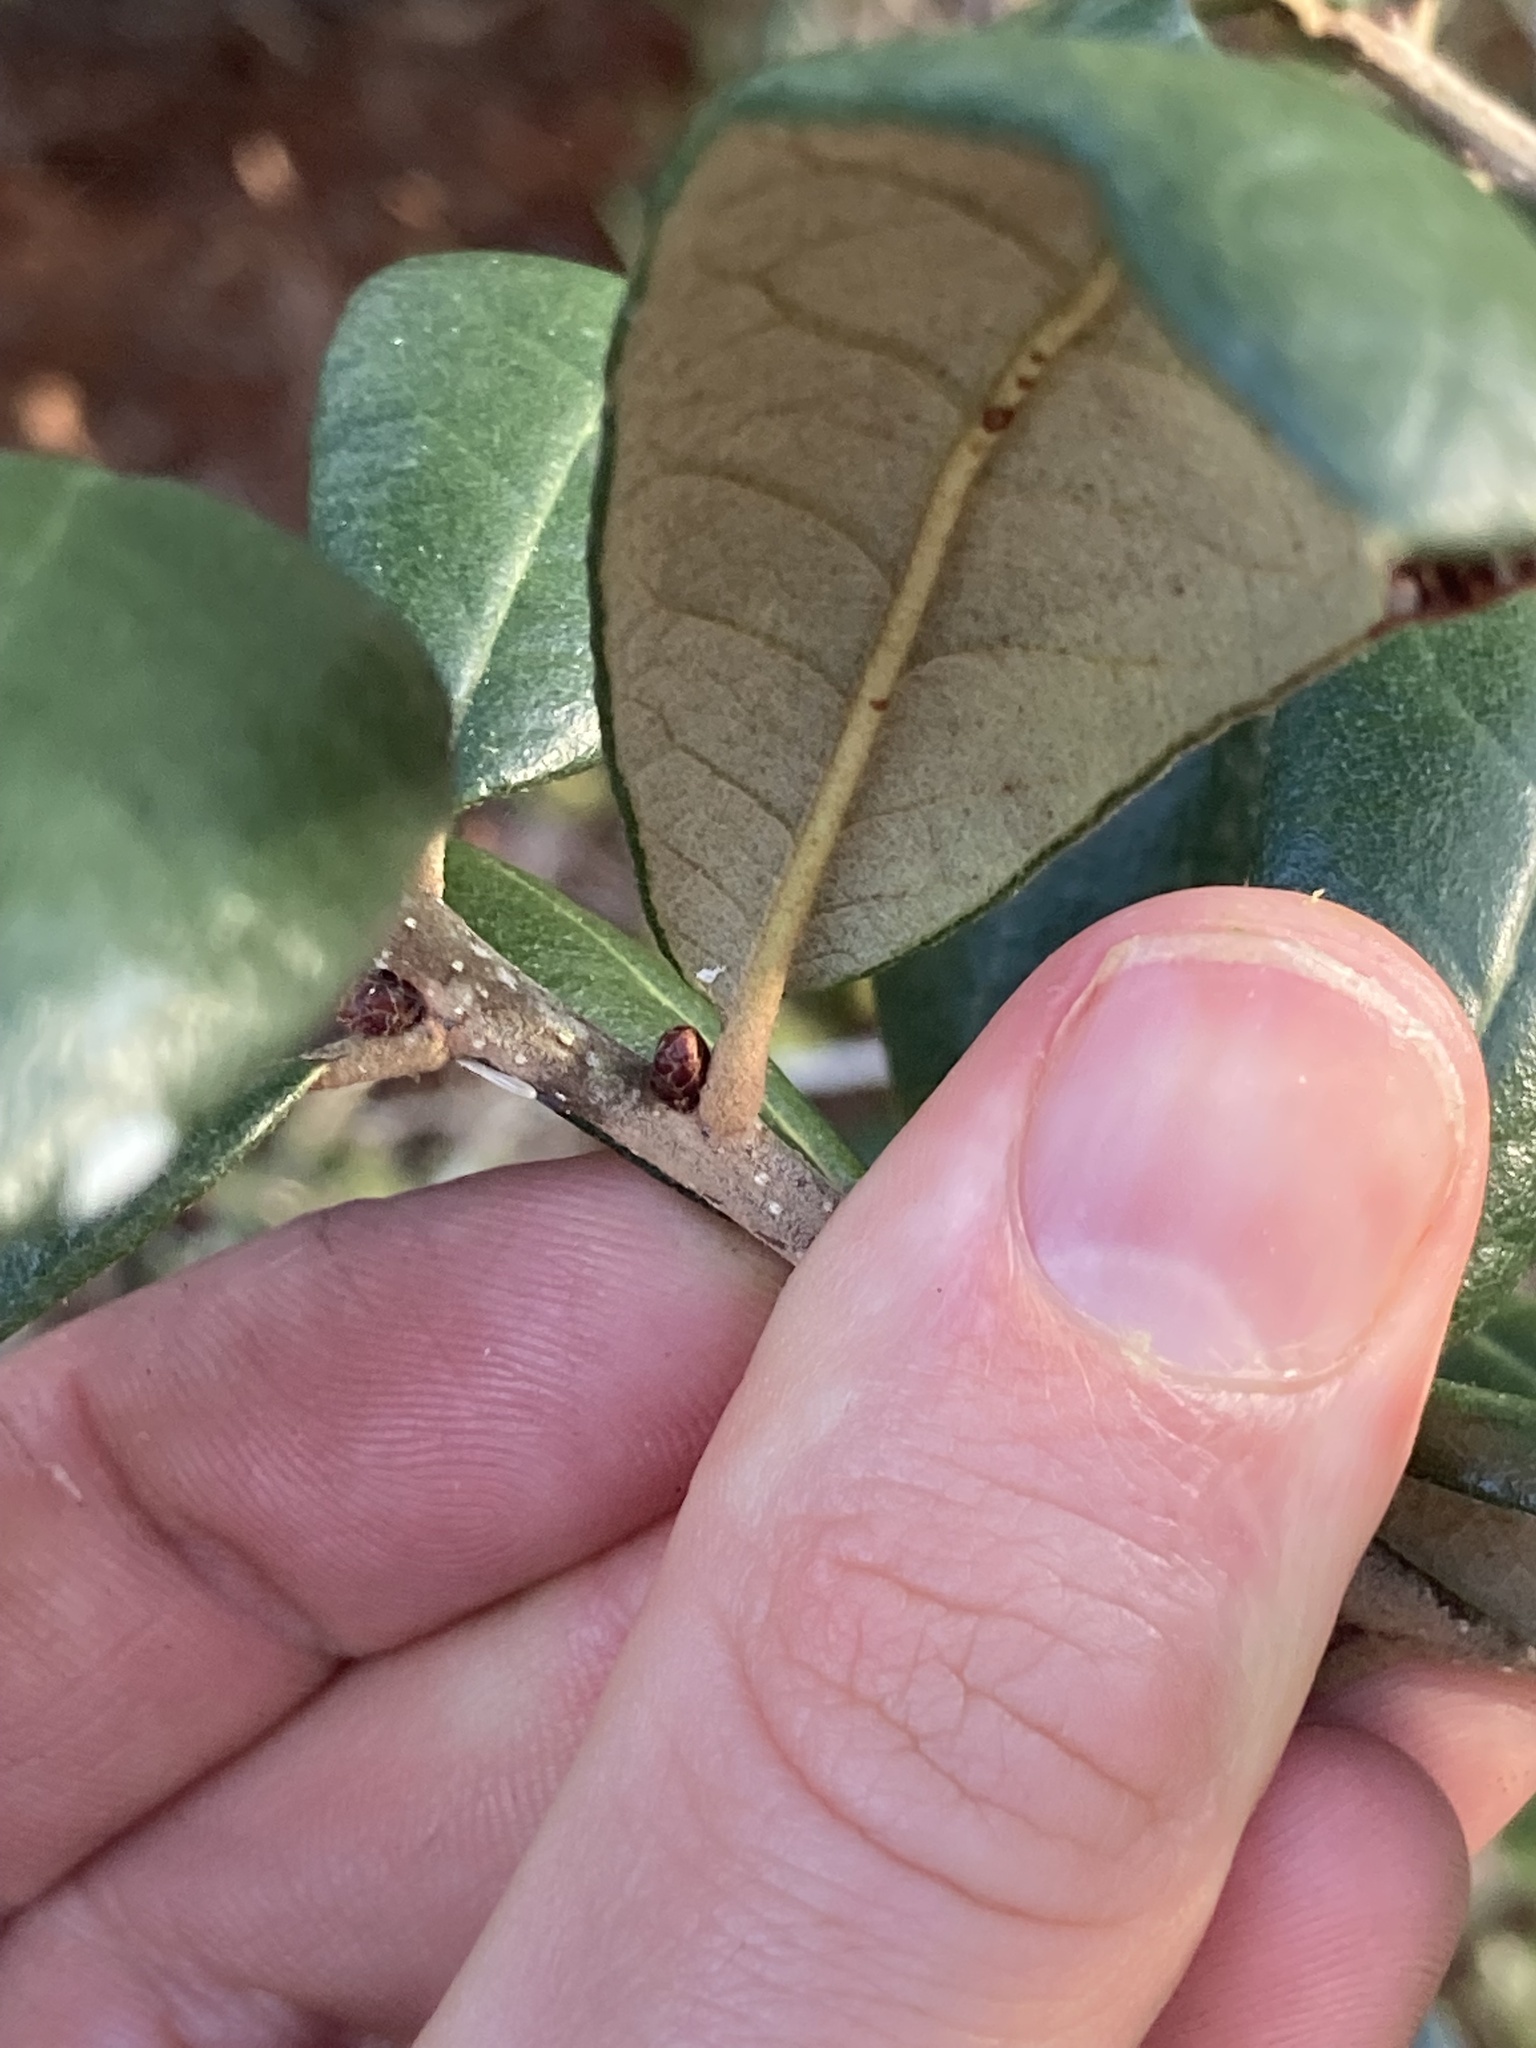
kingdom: Plantae
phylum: Tracheophyta
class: Magnoliopsida
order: Fagales
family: Fagaceae
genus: Quercus
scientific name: Quercus geminata
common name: Sand live oak
